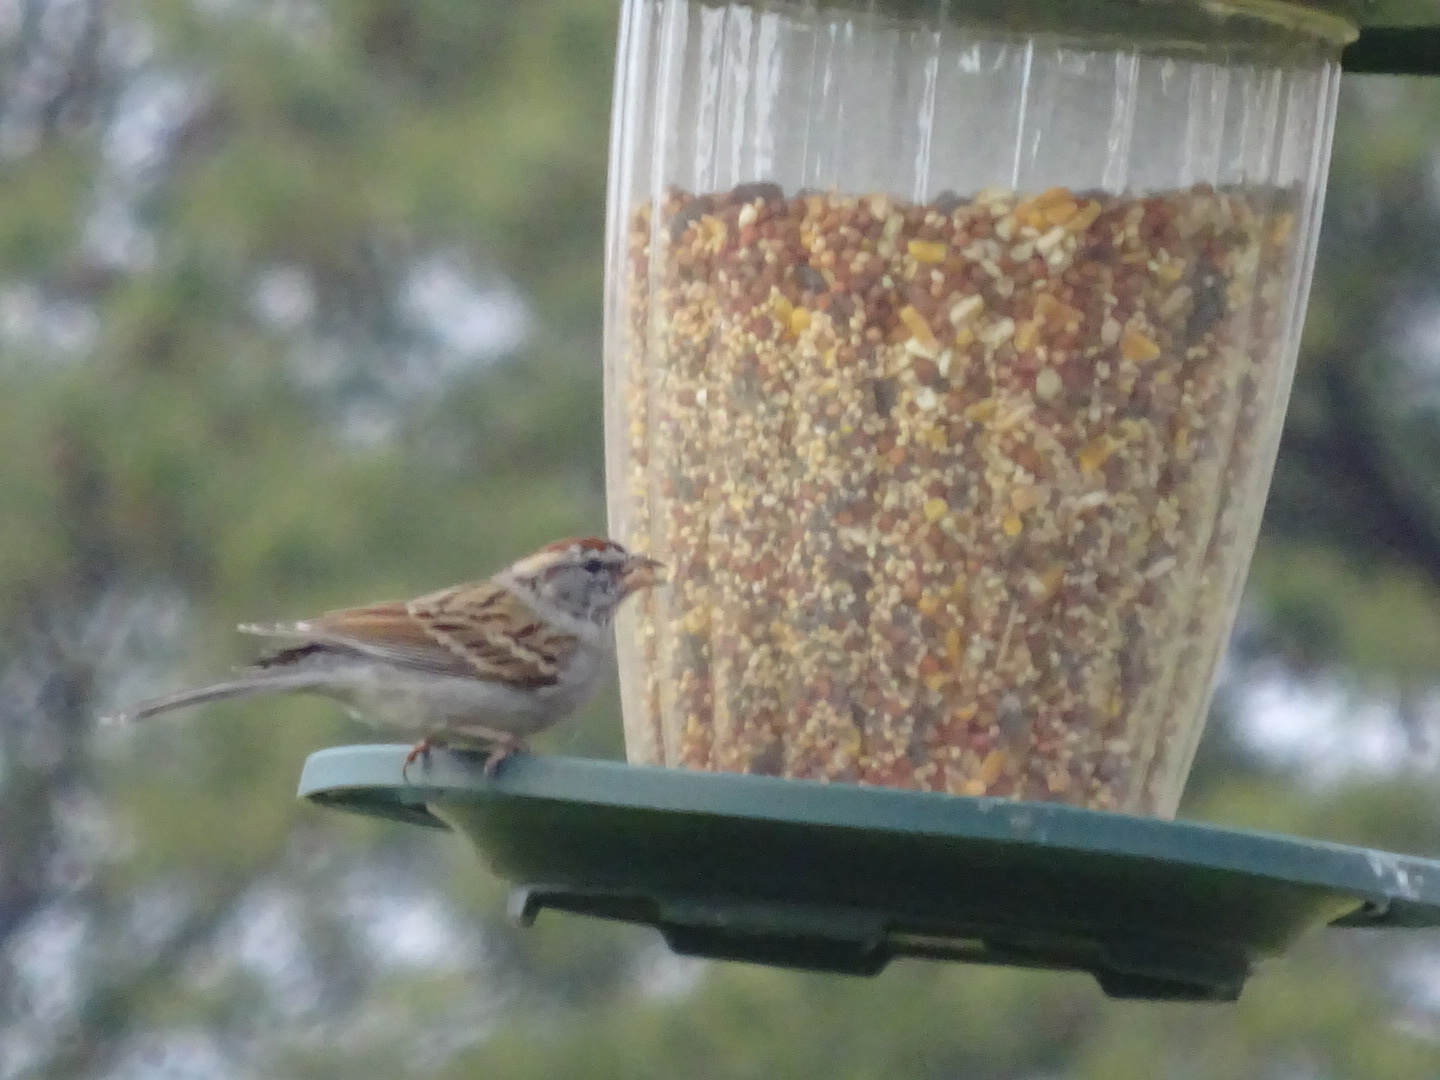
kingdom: Animalia
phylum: Chordata
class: Aves
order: Passeriformes
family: Passerellidae
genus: Spizella
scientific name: Spizella passerina
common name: Chipping sparrow
